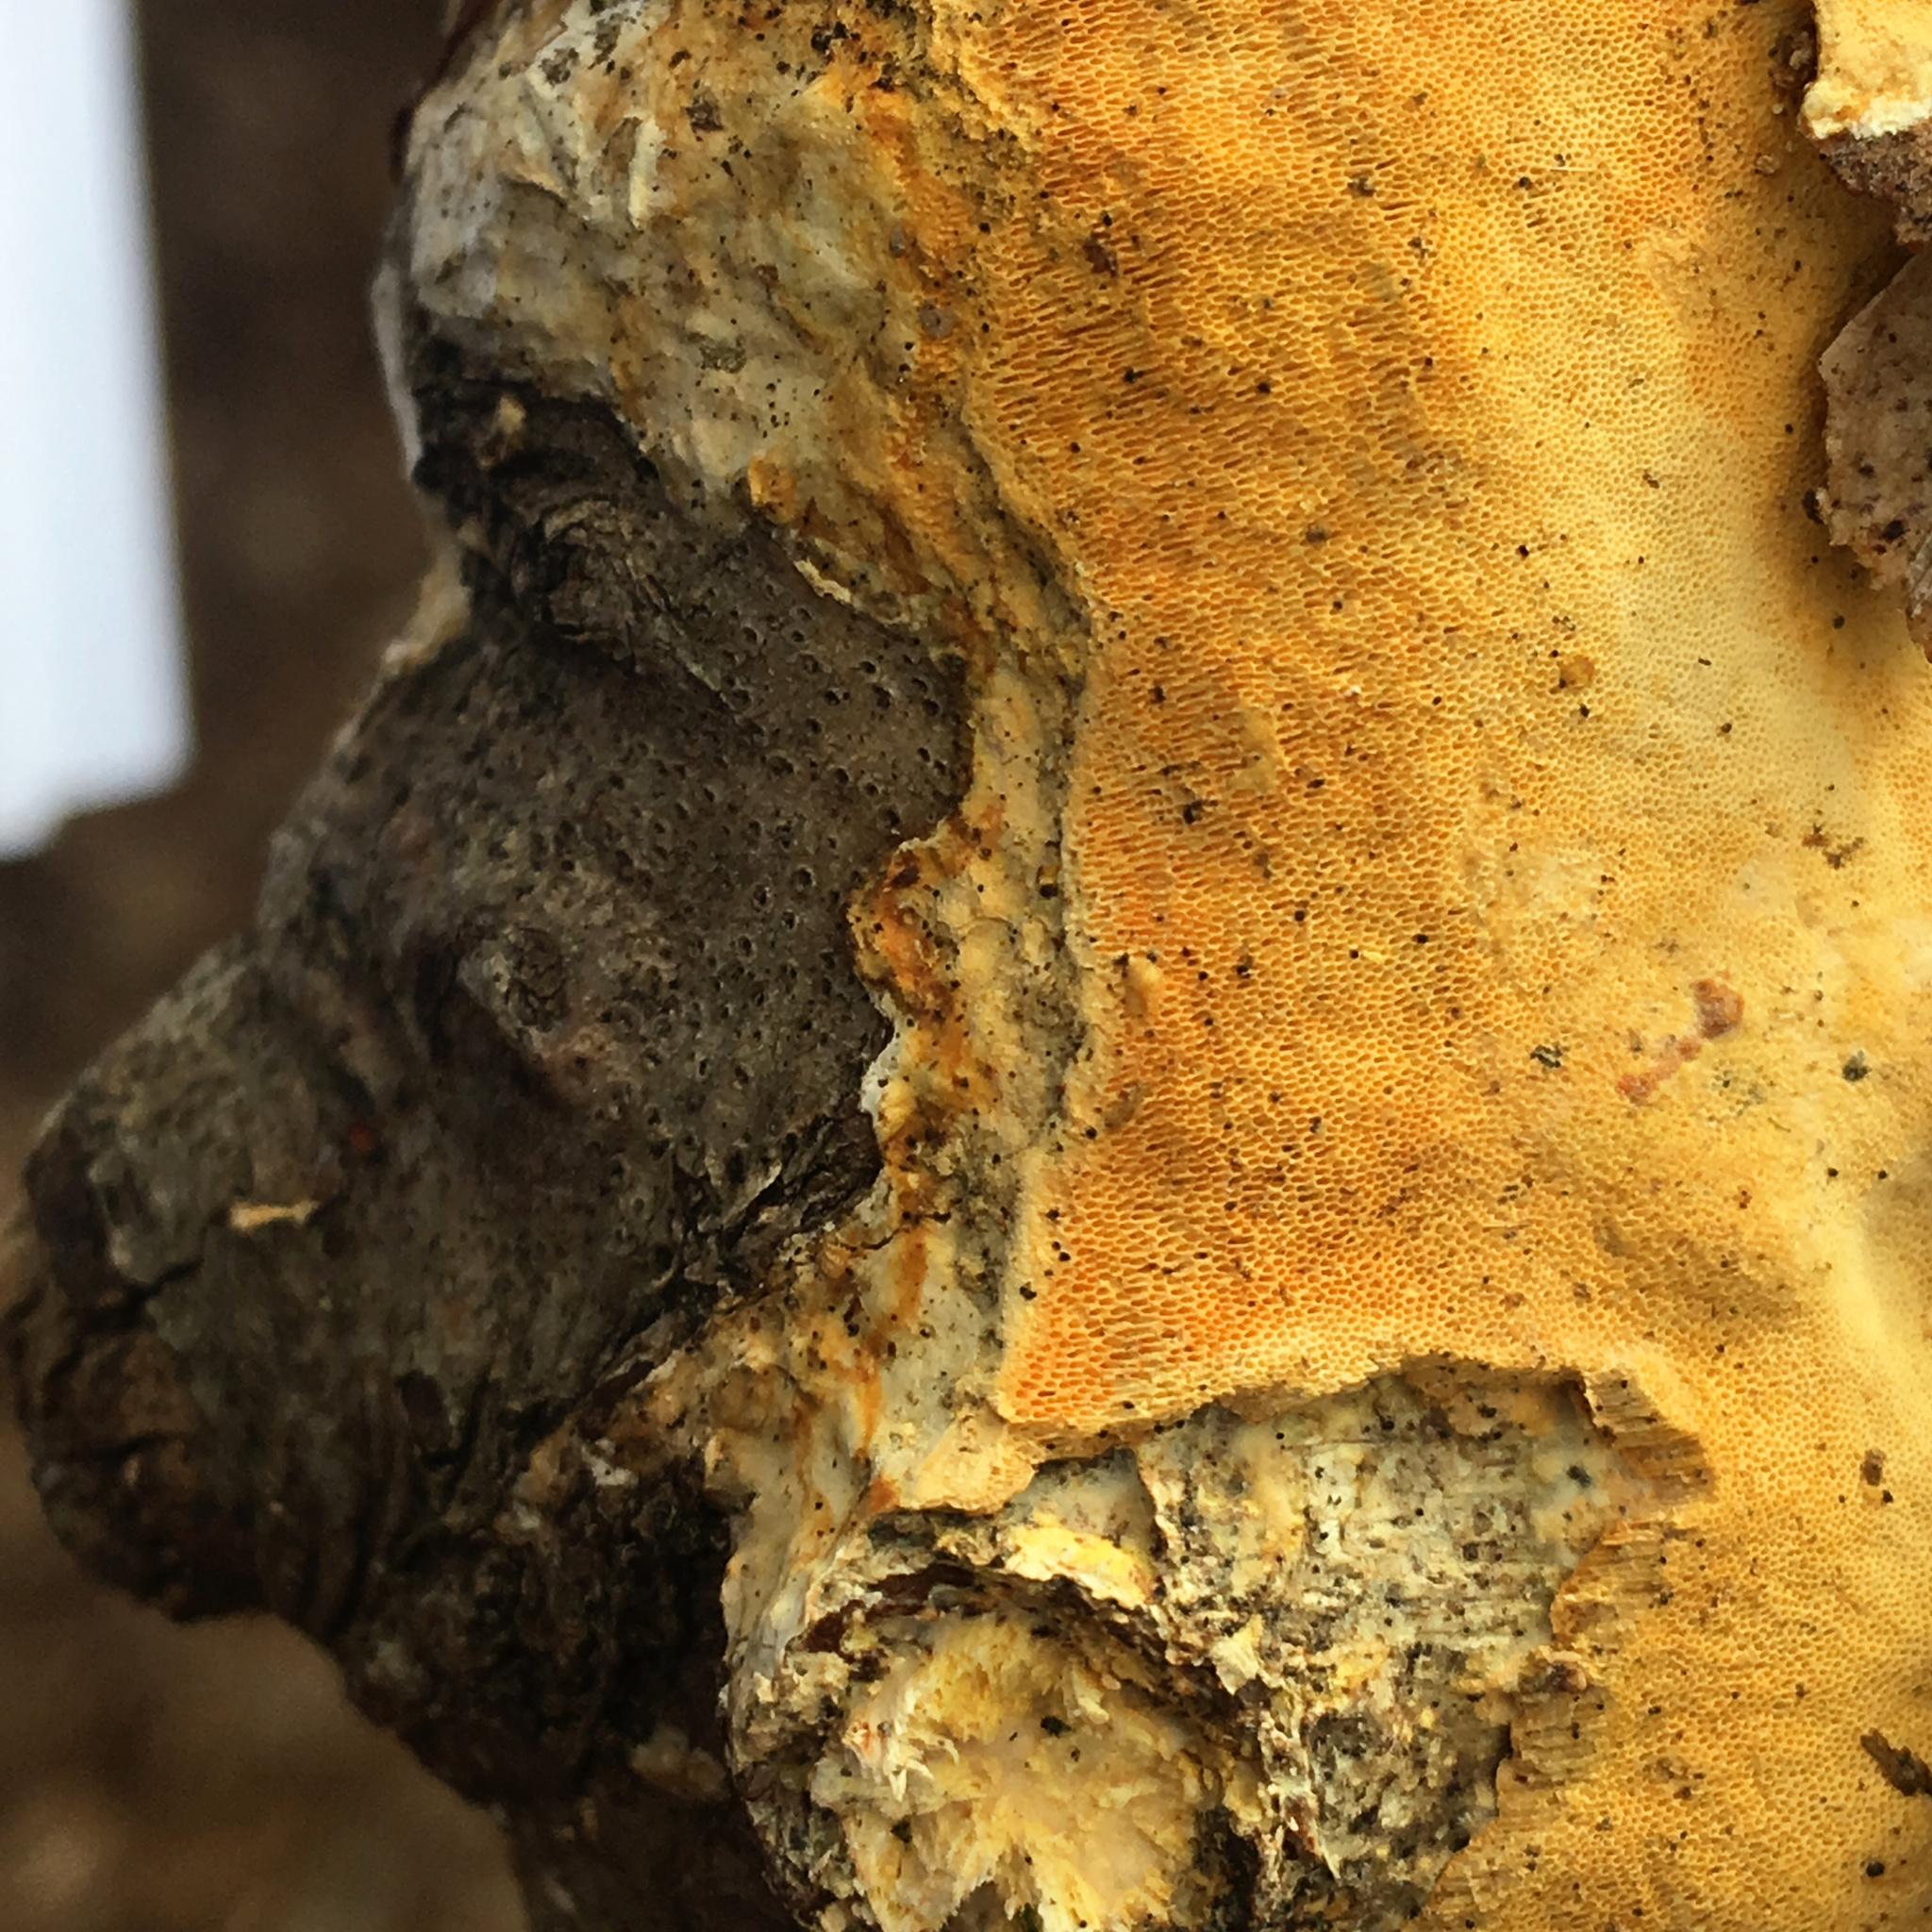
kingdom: Fungi
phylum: Basidiomycota
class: Agaricomycetes
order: Polyporales
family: Polyporaceae
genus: Perenniporia
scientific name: Perenniporia medulla-panis
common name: Pancake crust
